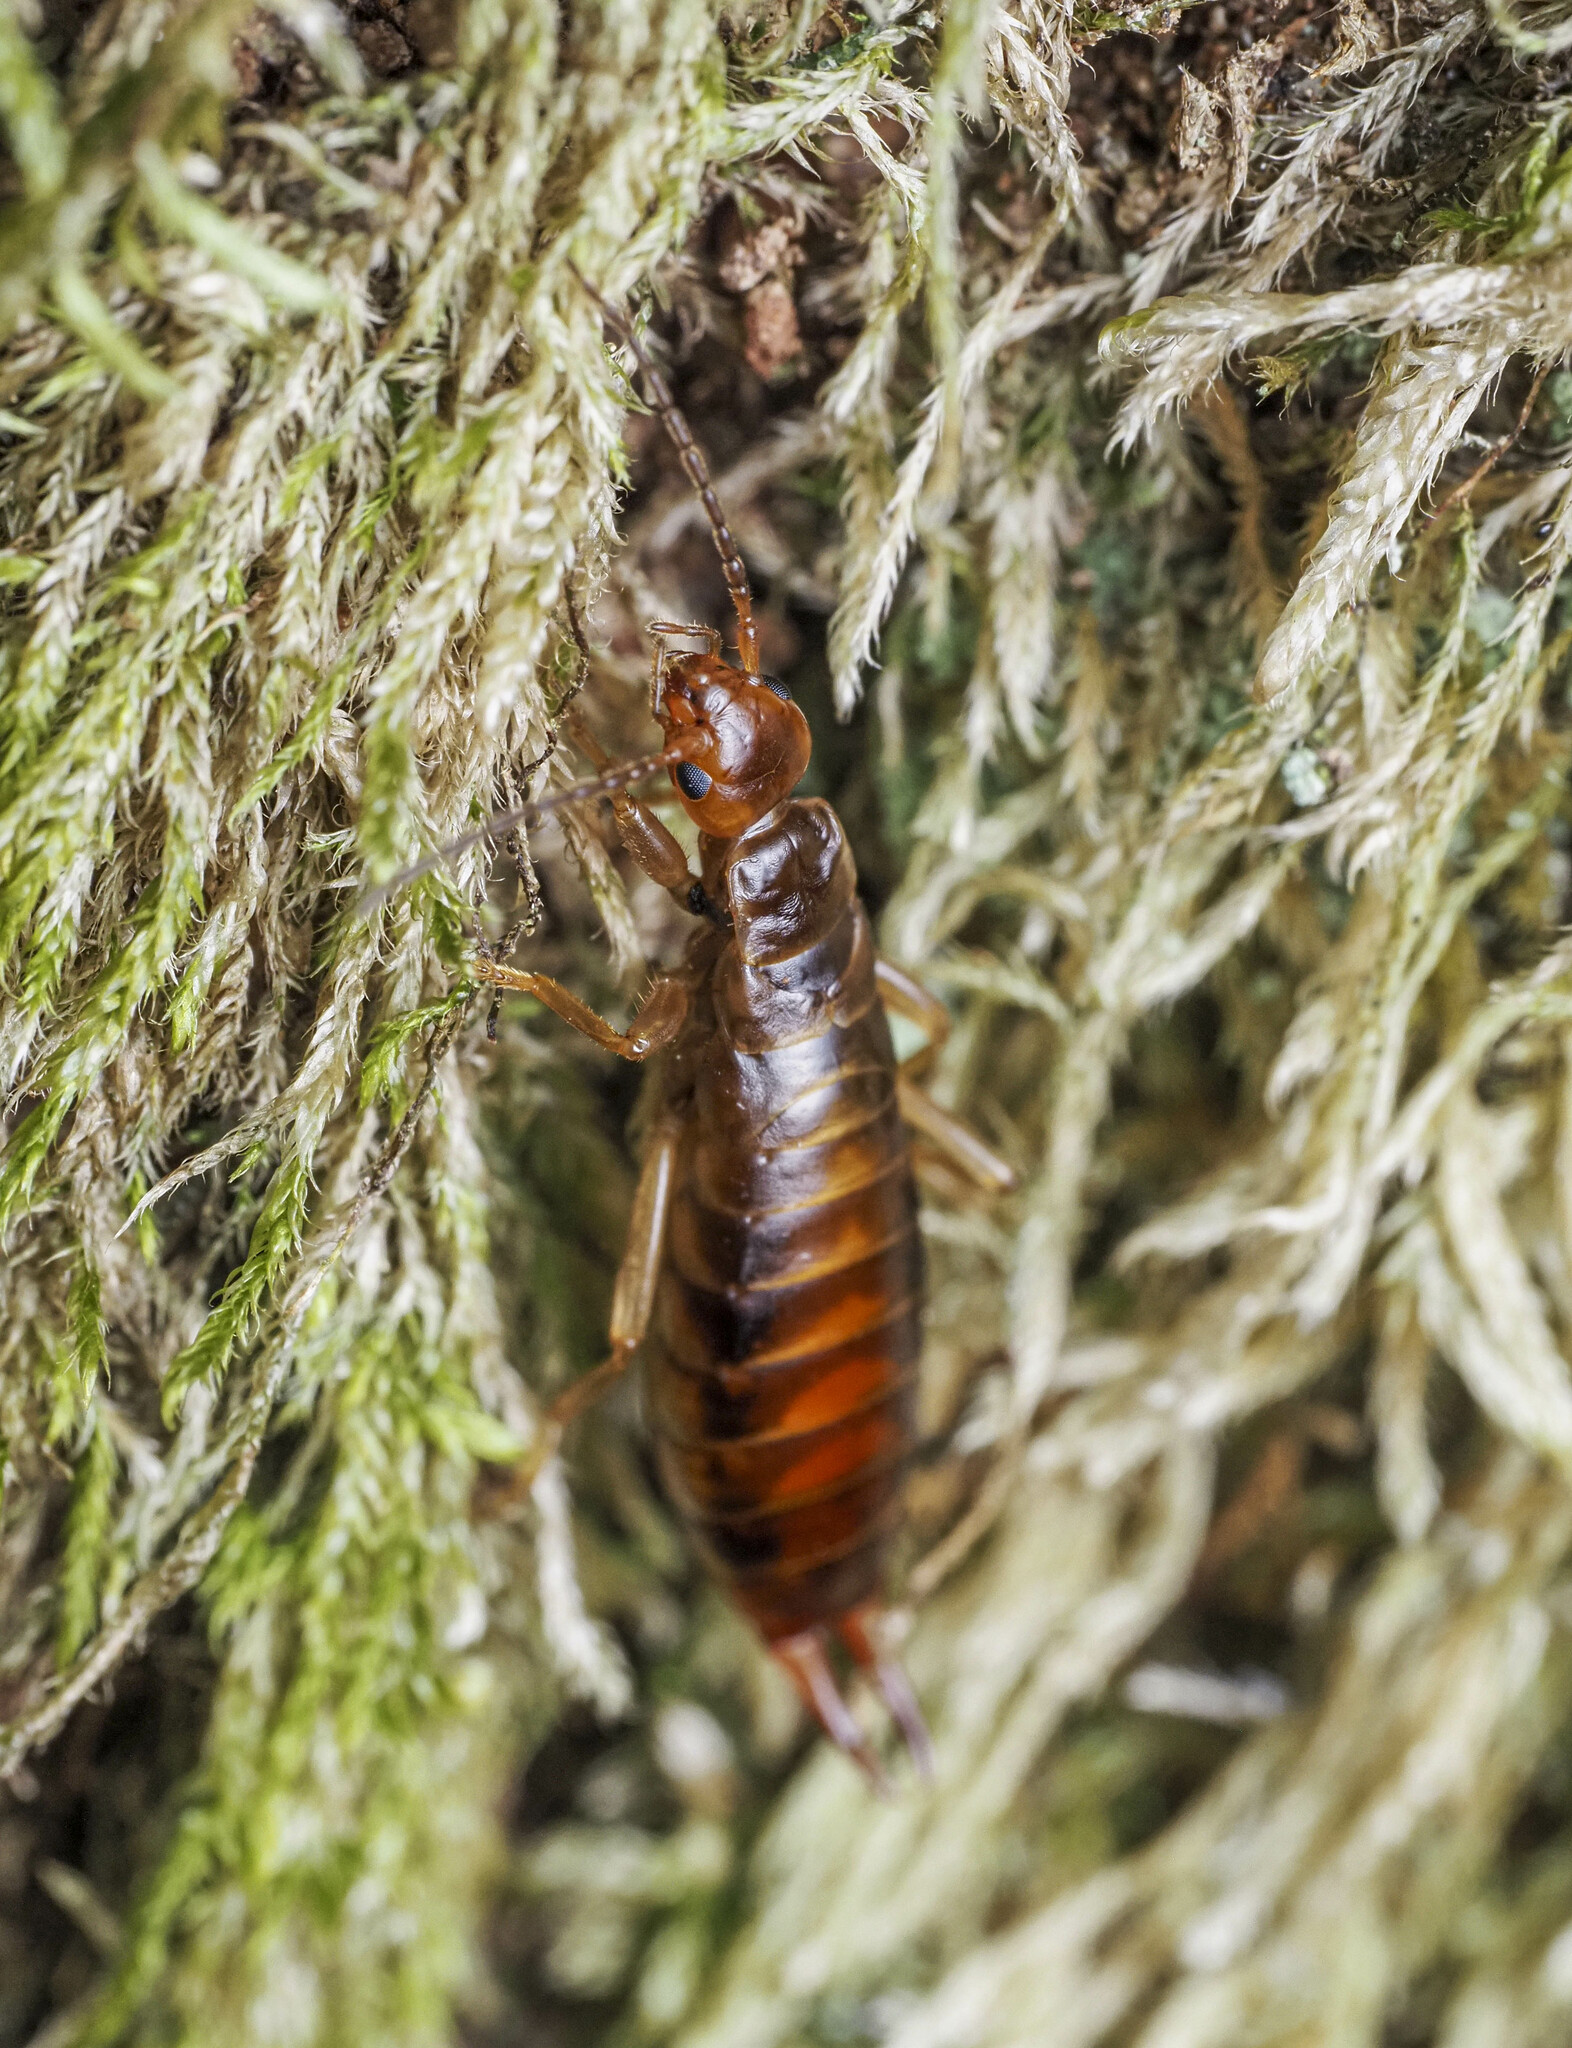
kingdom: Animalia
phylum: Arthropoda
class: Insecta
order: Dermaptera
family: Forficulidae
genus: Chelidurella
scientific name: Chelidurella acanthopygia
